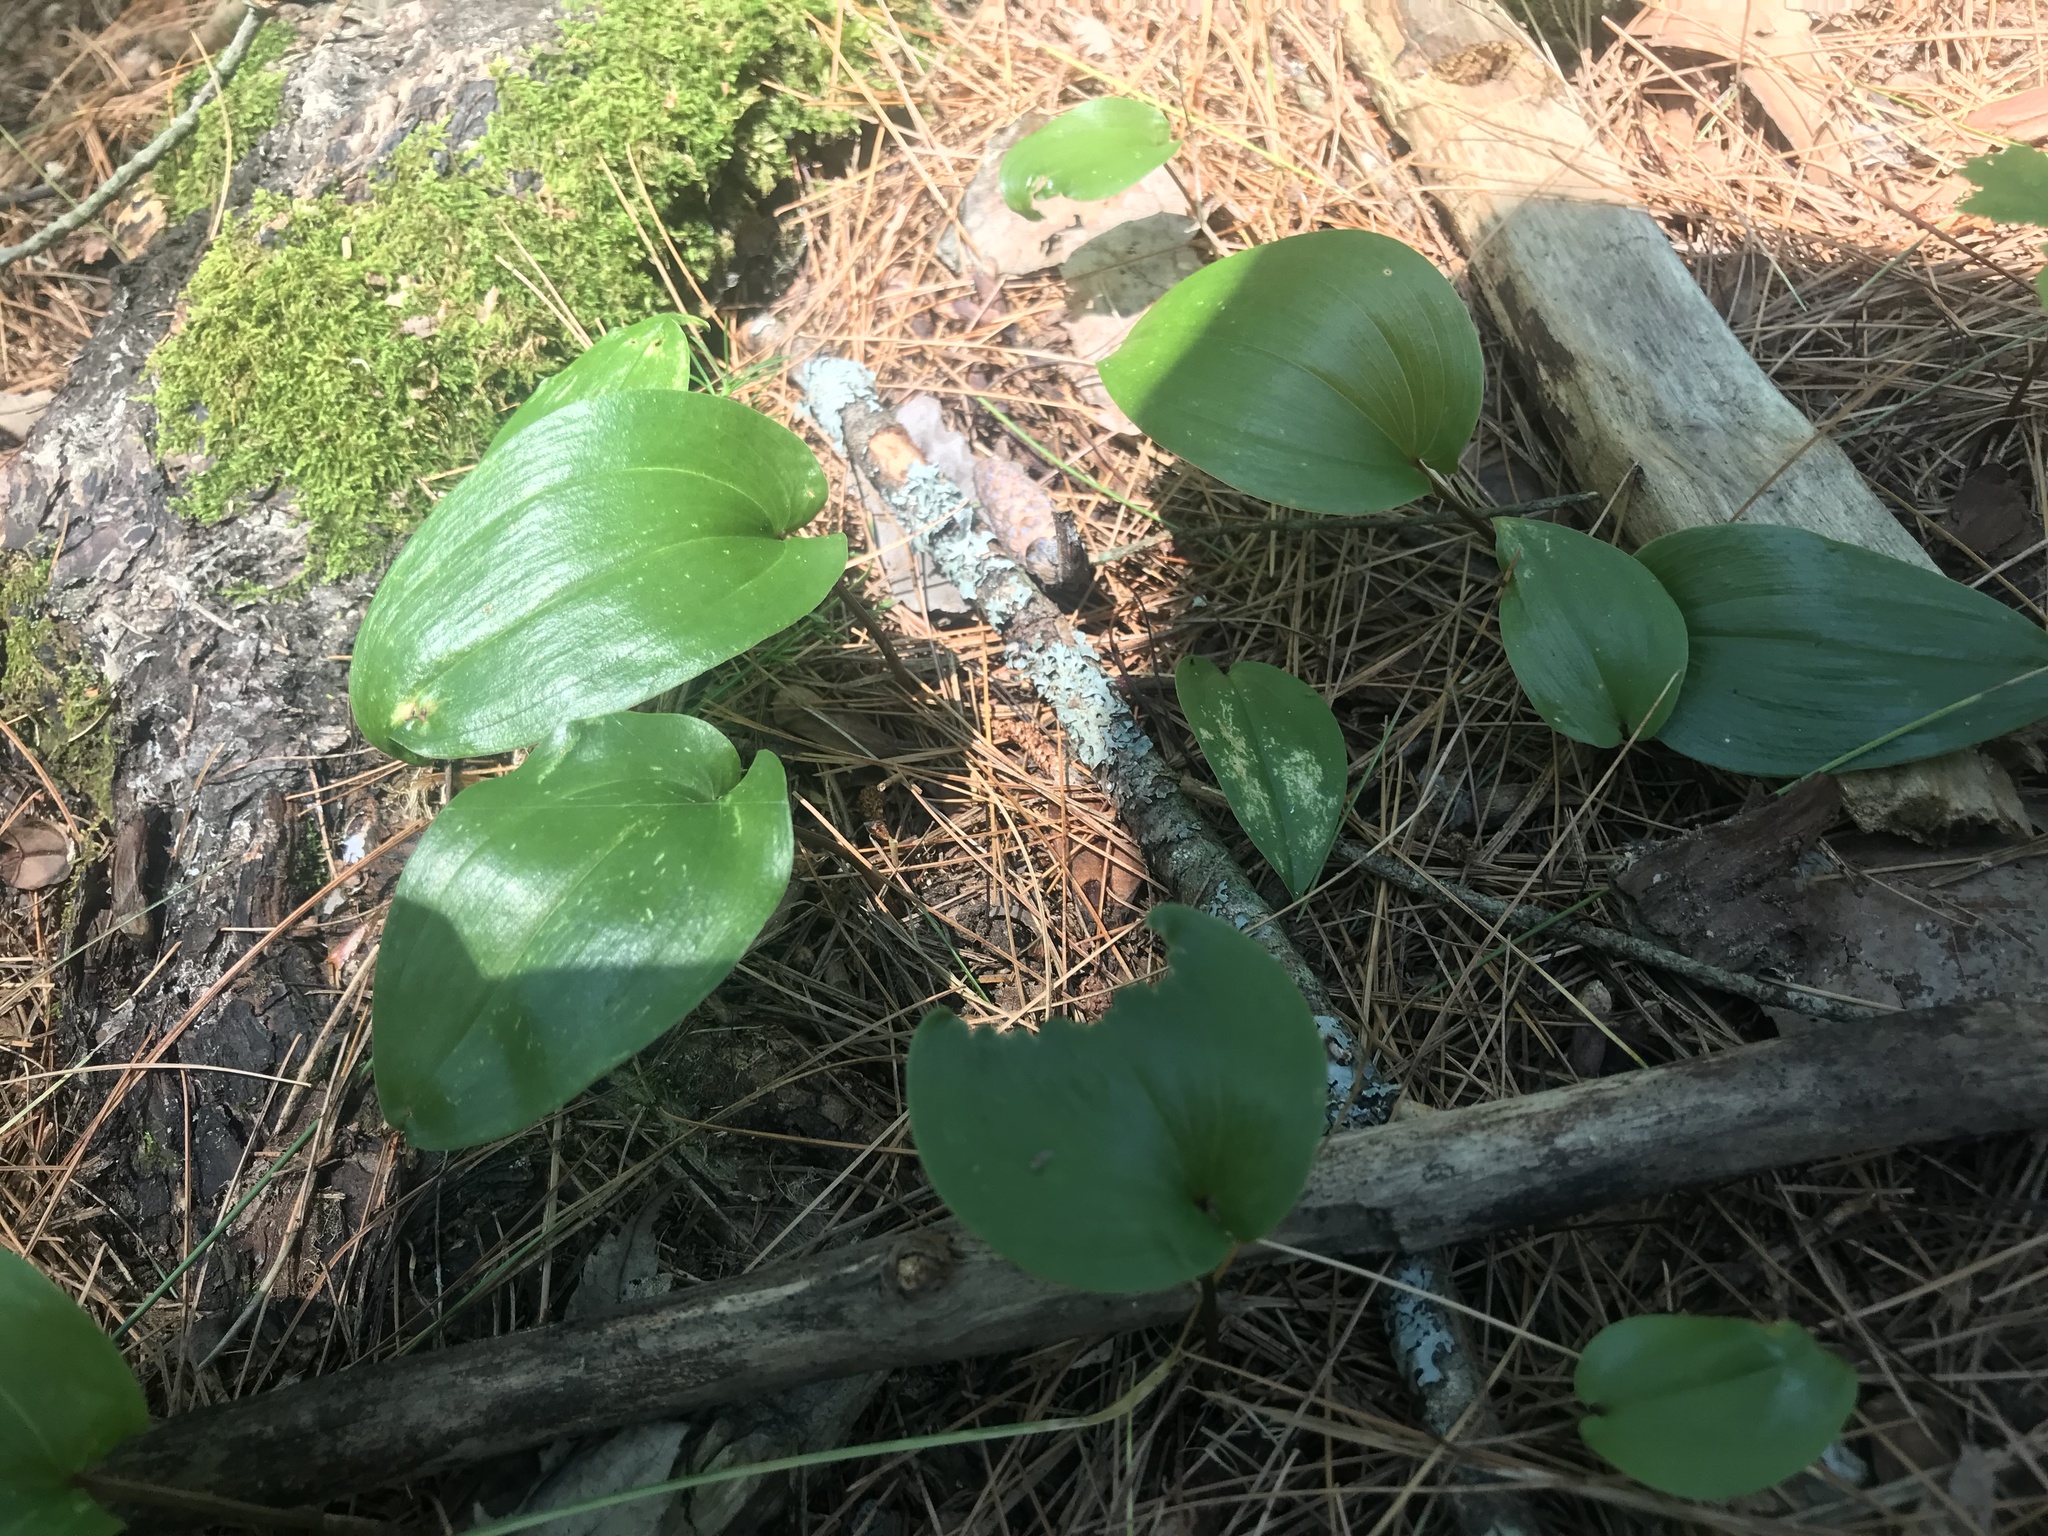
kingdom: Plantae
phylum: Tracheophyta
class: Liliopsida
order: Asparagales
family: Asparagaceae
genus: Maianthemum
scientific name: Maianthemum canadense
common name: False lily-of-the-valley
